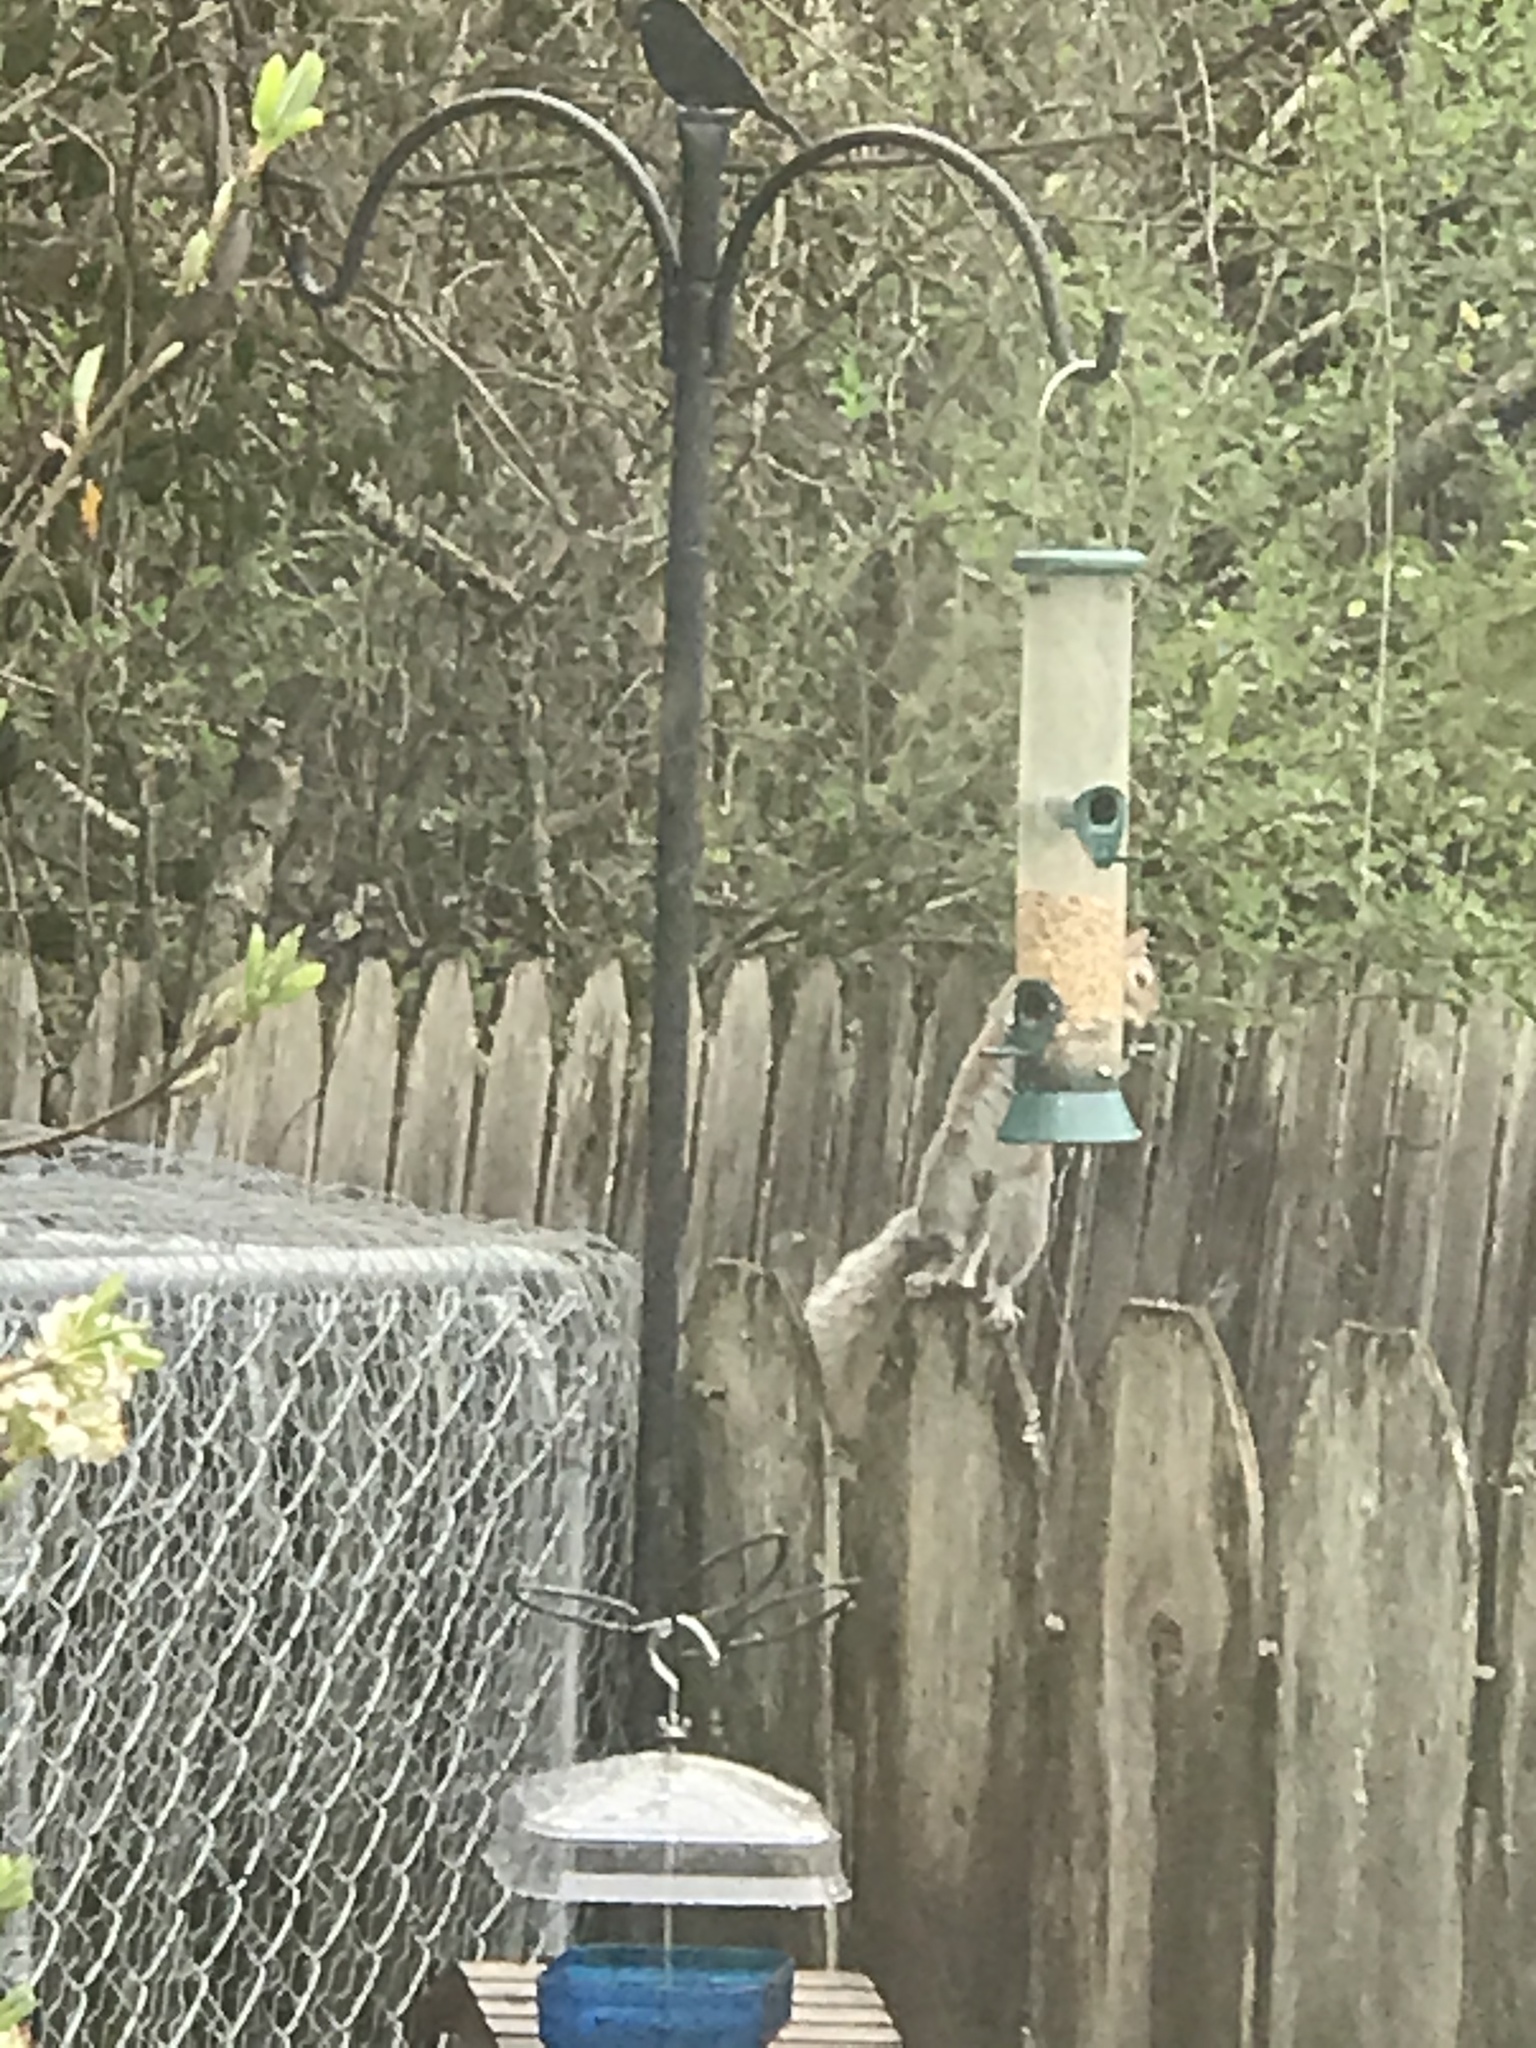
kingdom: Animalia
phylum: Chordata
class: Mammalia
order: Rodentia
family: Sciuridae
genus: Sciurus
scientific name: Sciurus carolinensis
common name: Eastern gray squirrel
